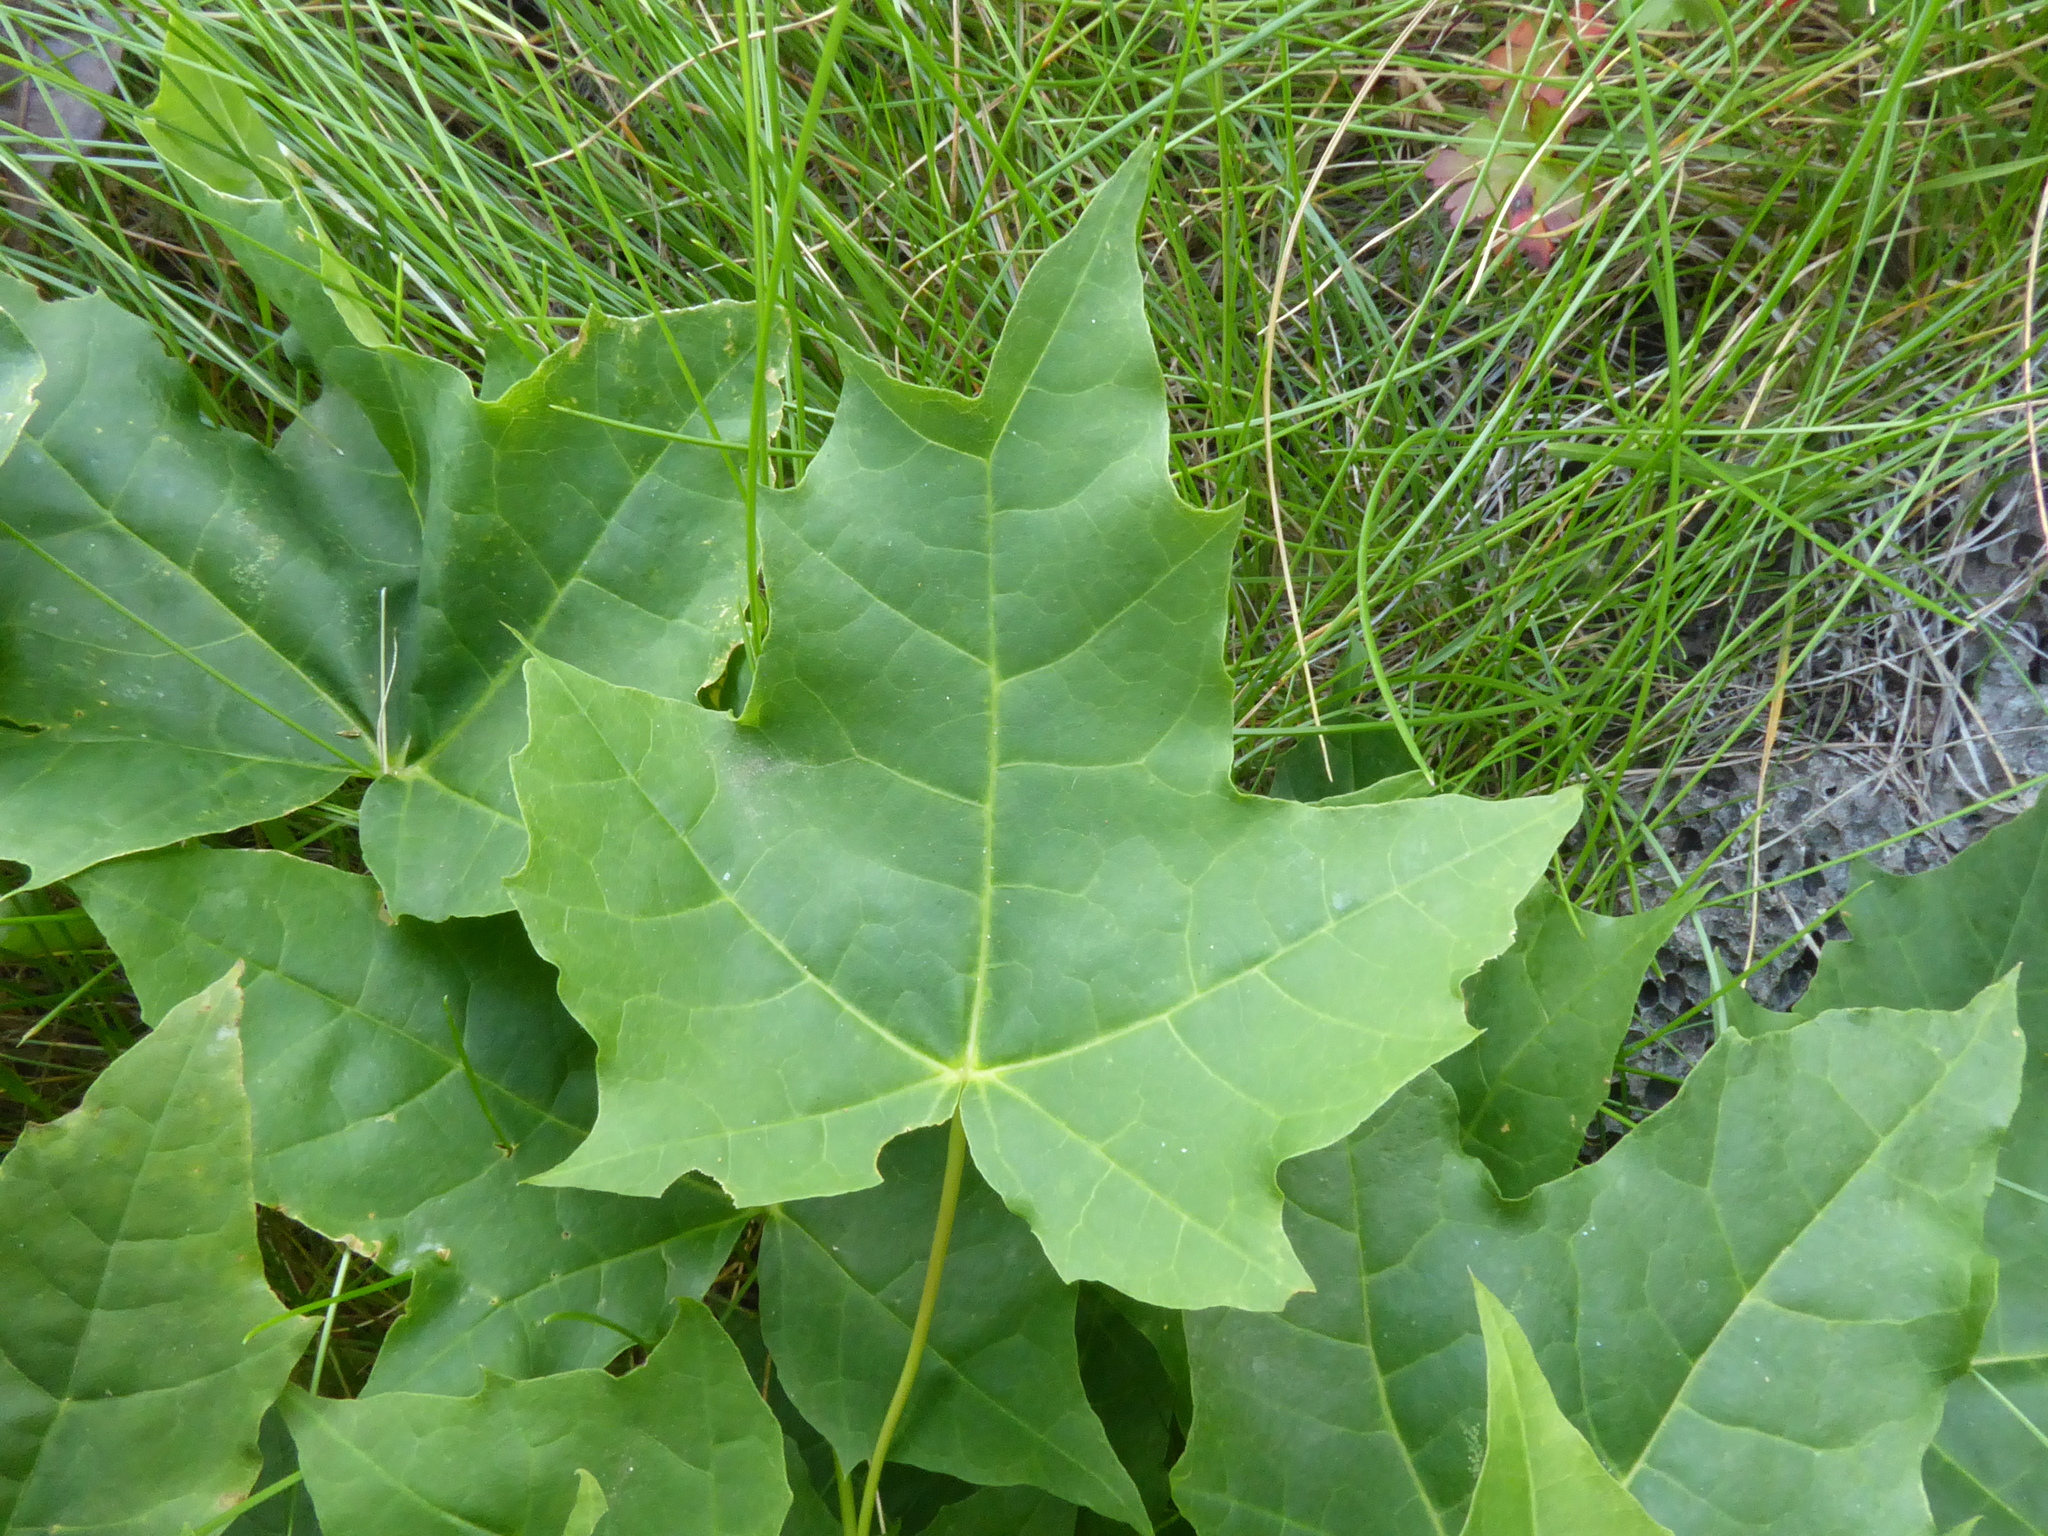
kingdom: Plantae
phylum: Tracheophyta
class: Magnoliopsida
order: Sapindales
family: Sapindaceae
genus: Acer
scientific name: Acer platanoides
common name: Norway maple
